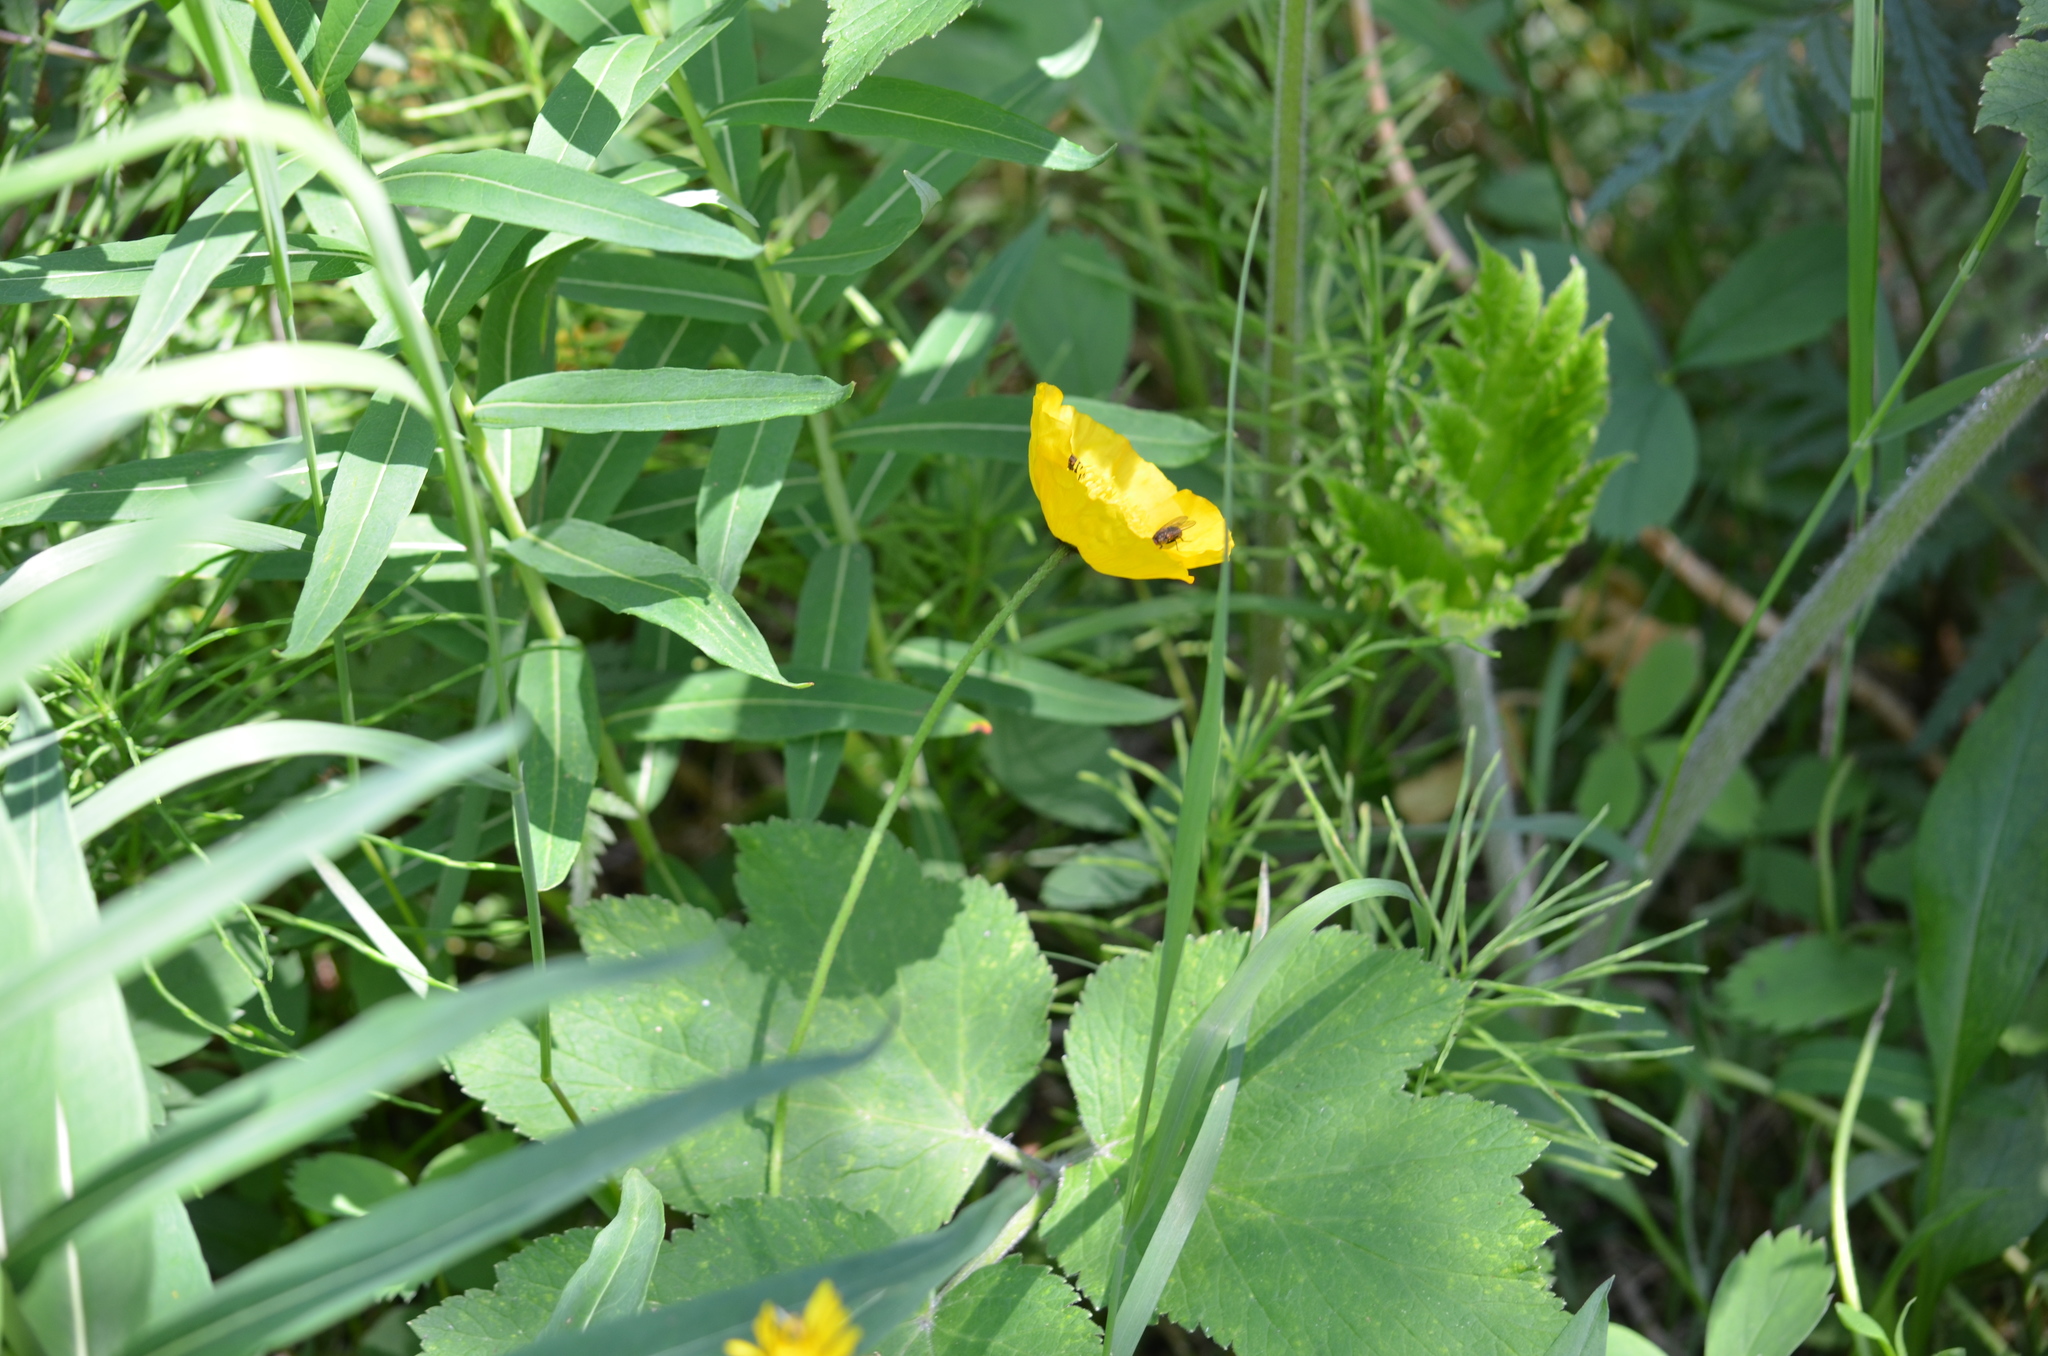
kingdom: Plantae
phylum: Tracheophyta
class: Magnoliopsida
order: Ranunculales
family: Ranunculaceae
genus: Ranunculus
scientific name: Ranunculus
